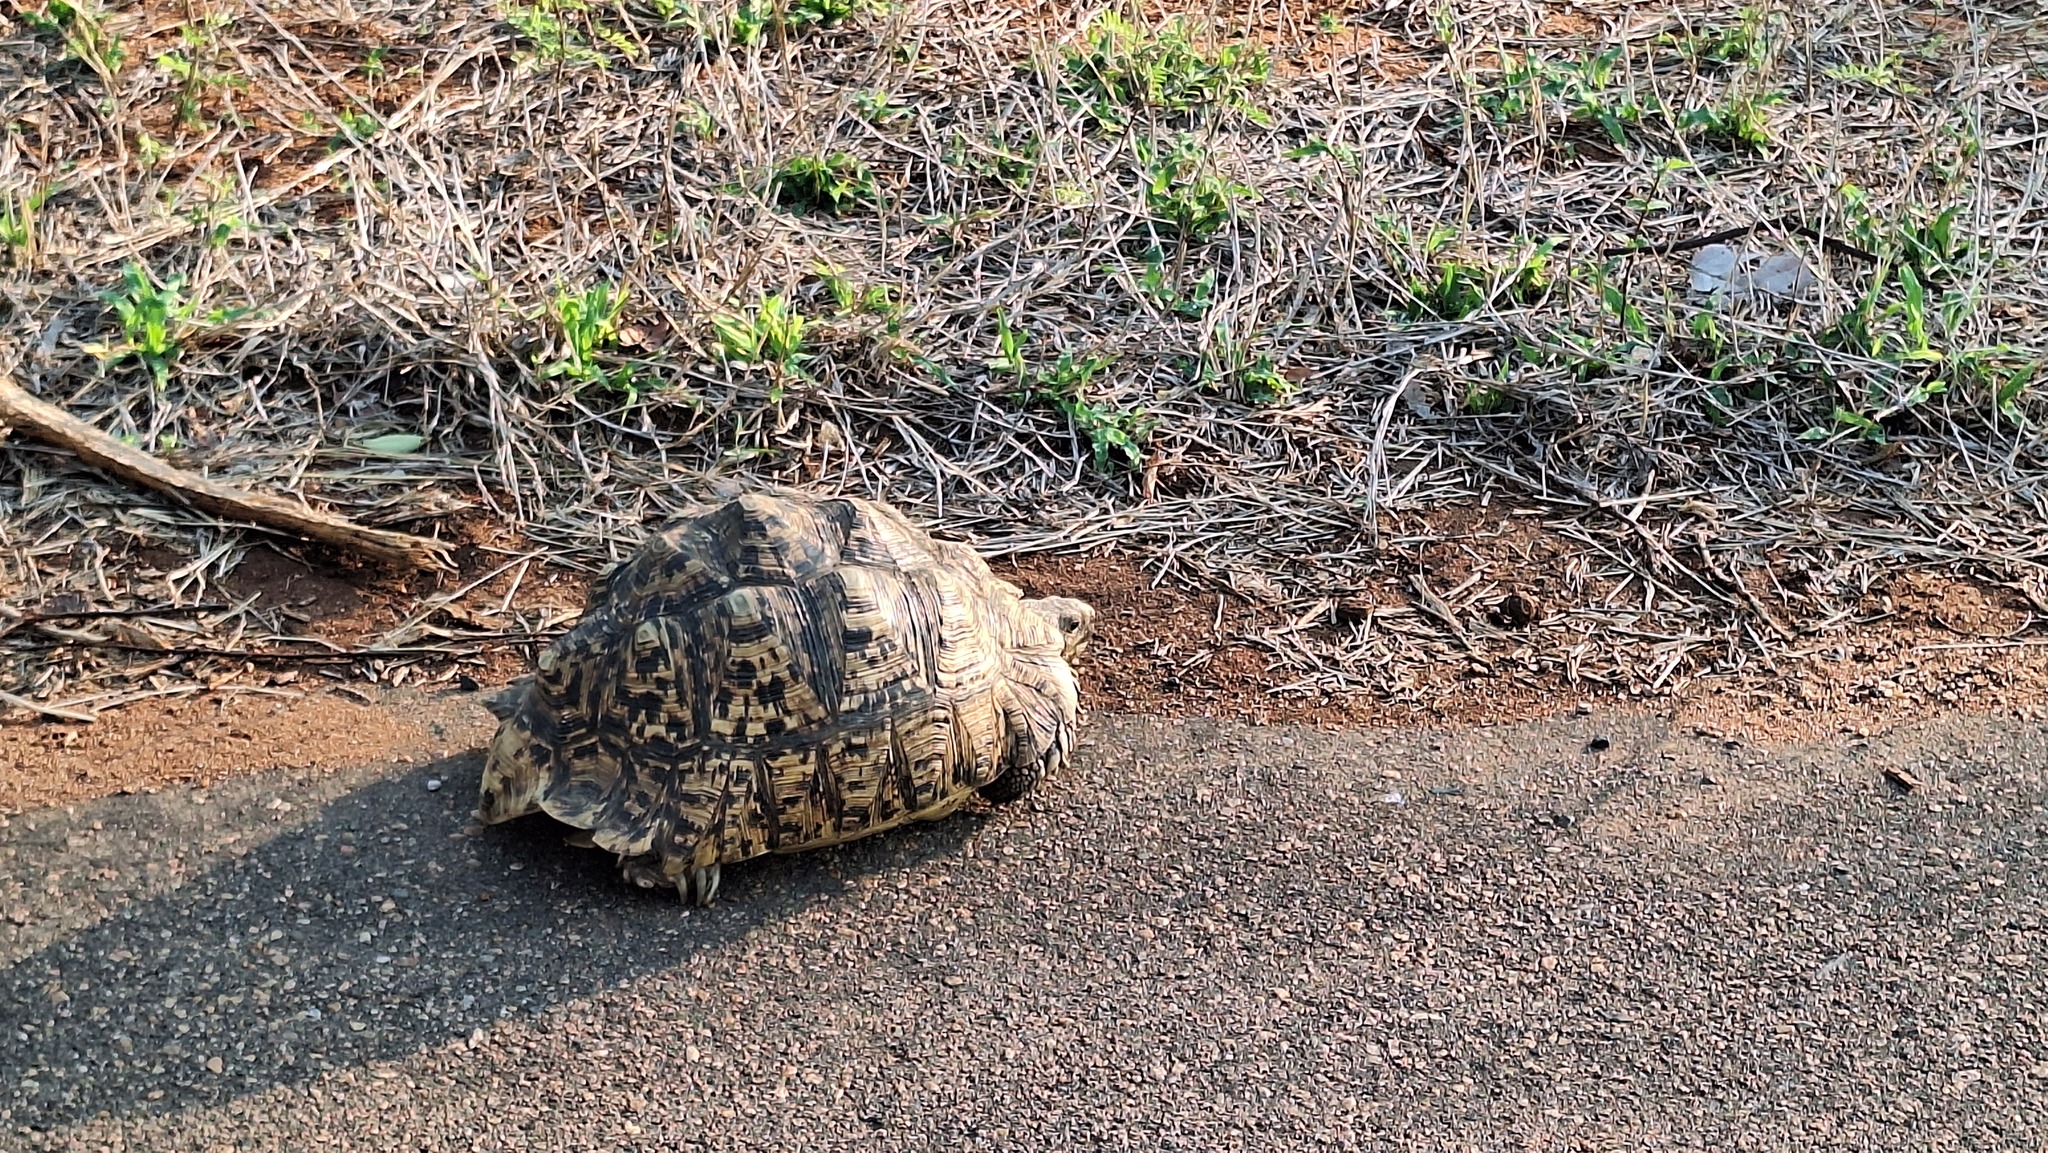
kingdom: Animalia
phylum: Chordata
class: Testudines
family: Testudinidae
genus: Stigmochelys
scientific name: Stigmochelys pardalis
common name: Leopard tortoise
